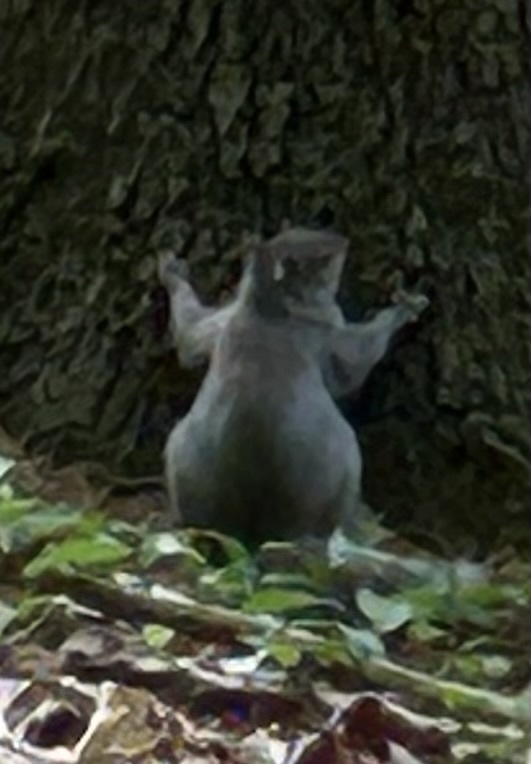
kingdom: Animalia
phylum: Chordata
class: Mammalia
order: Rodentia
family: Sciuridae
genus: Sciurus
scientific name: Sciurus carolinensis
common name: Eastern gray squirrel
